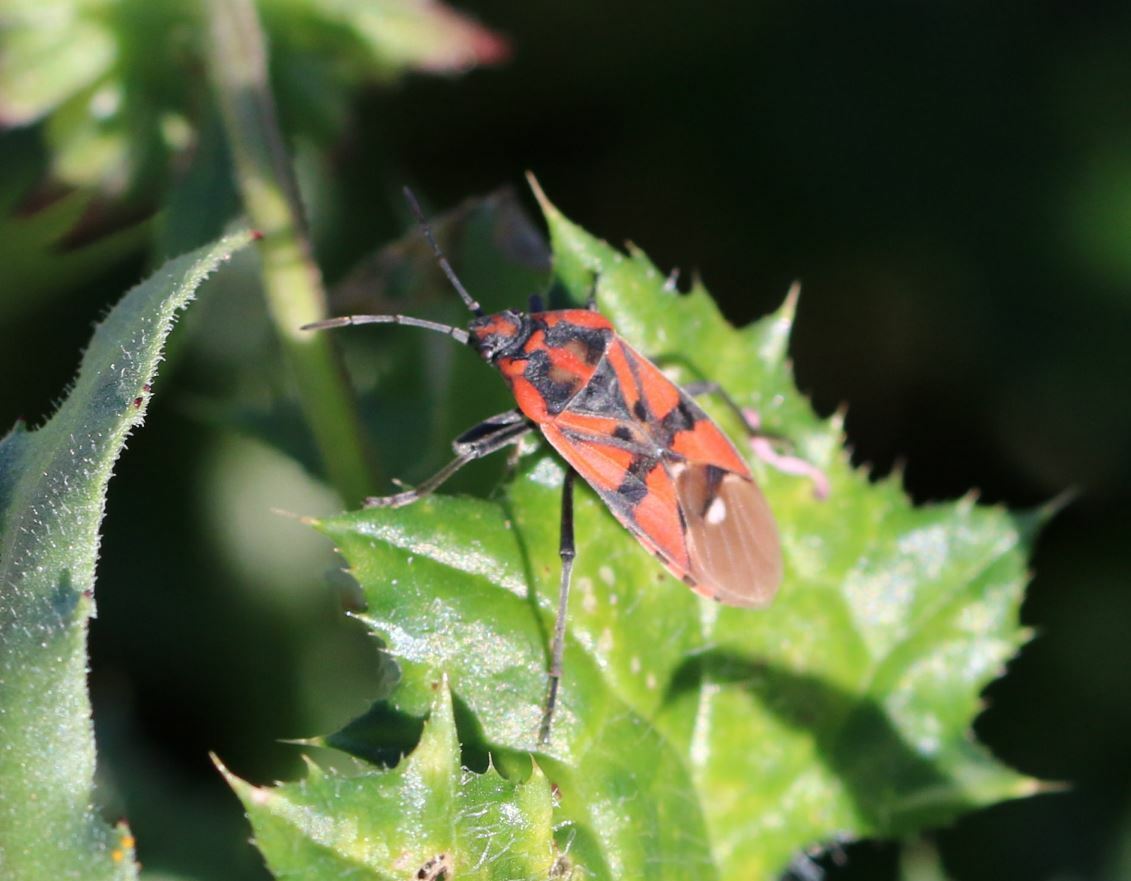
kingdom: Animalia
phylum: Arthropoda
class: Insecta
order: Hemiptera
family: Lygaeidae
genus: Spilostethus
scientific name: Spilostethus pandurus
